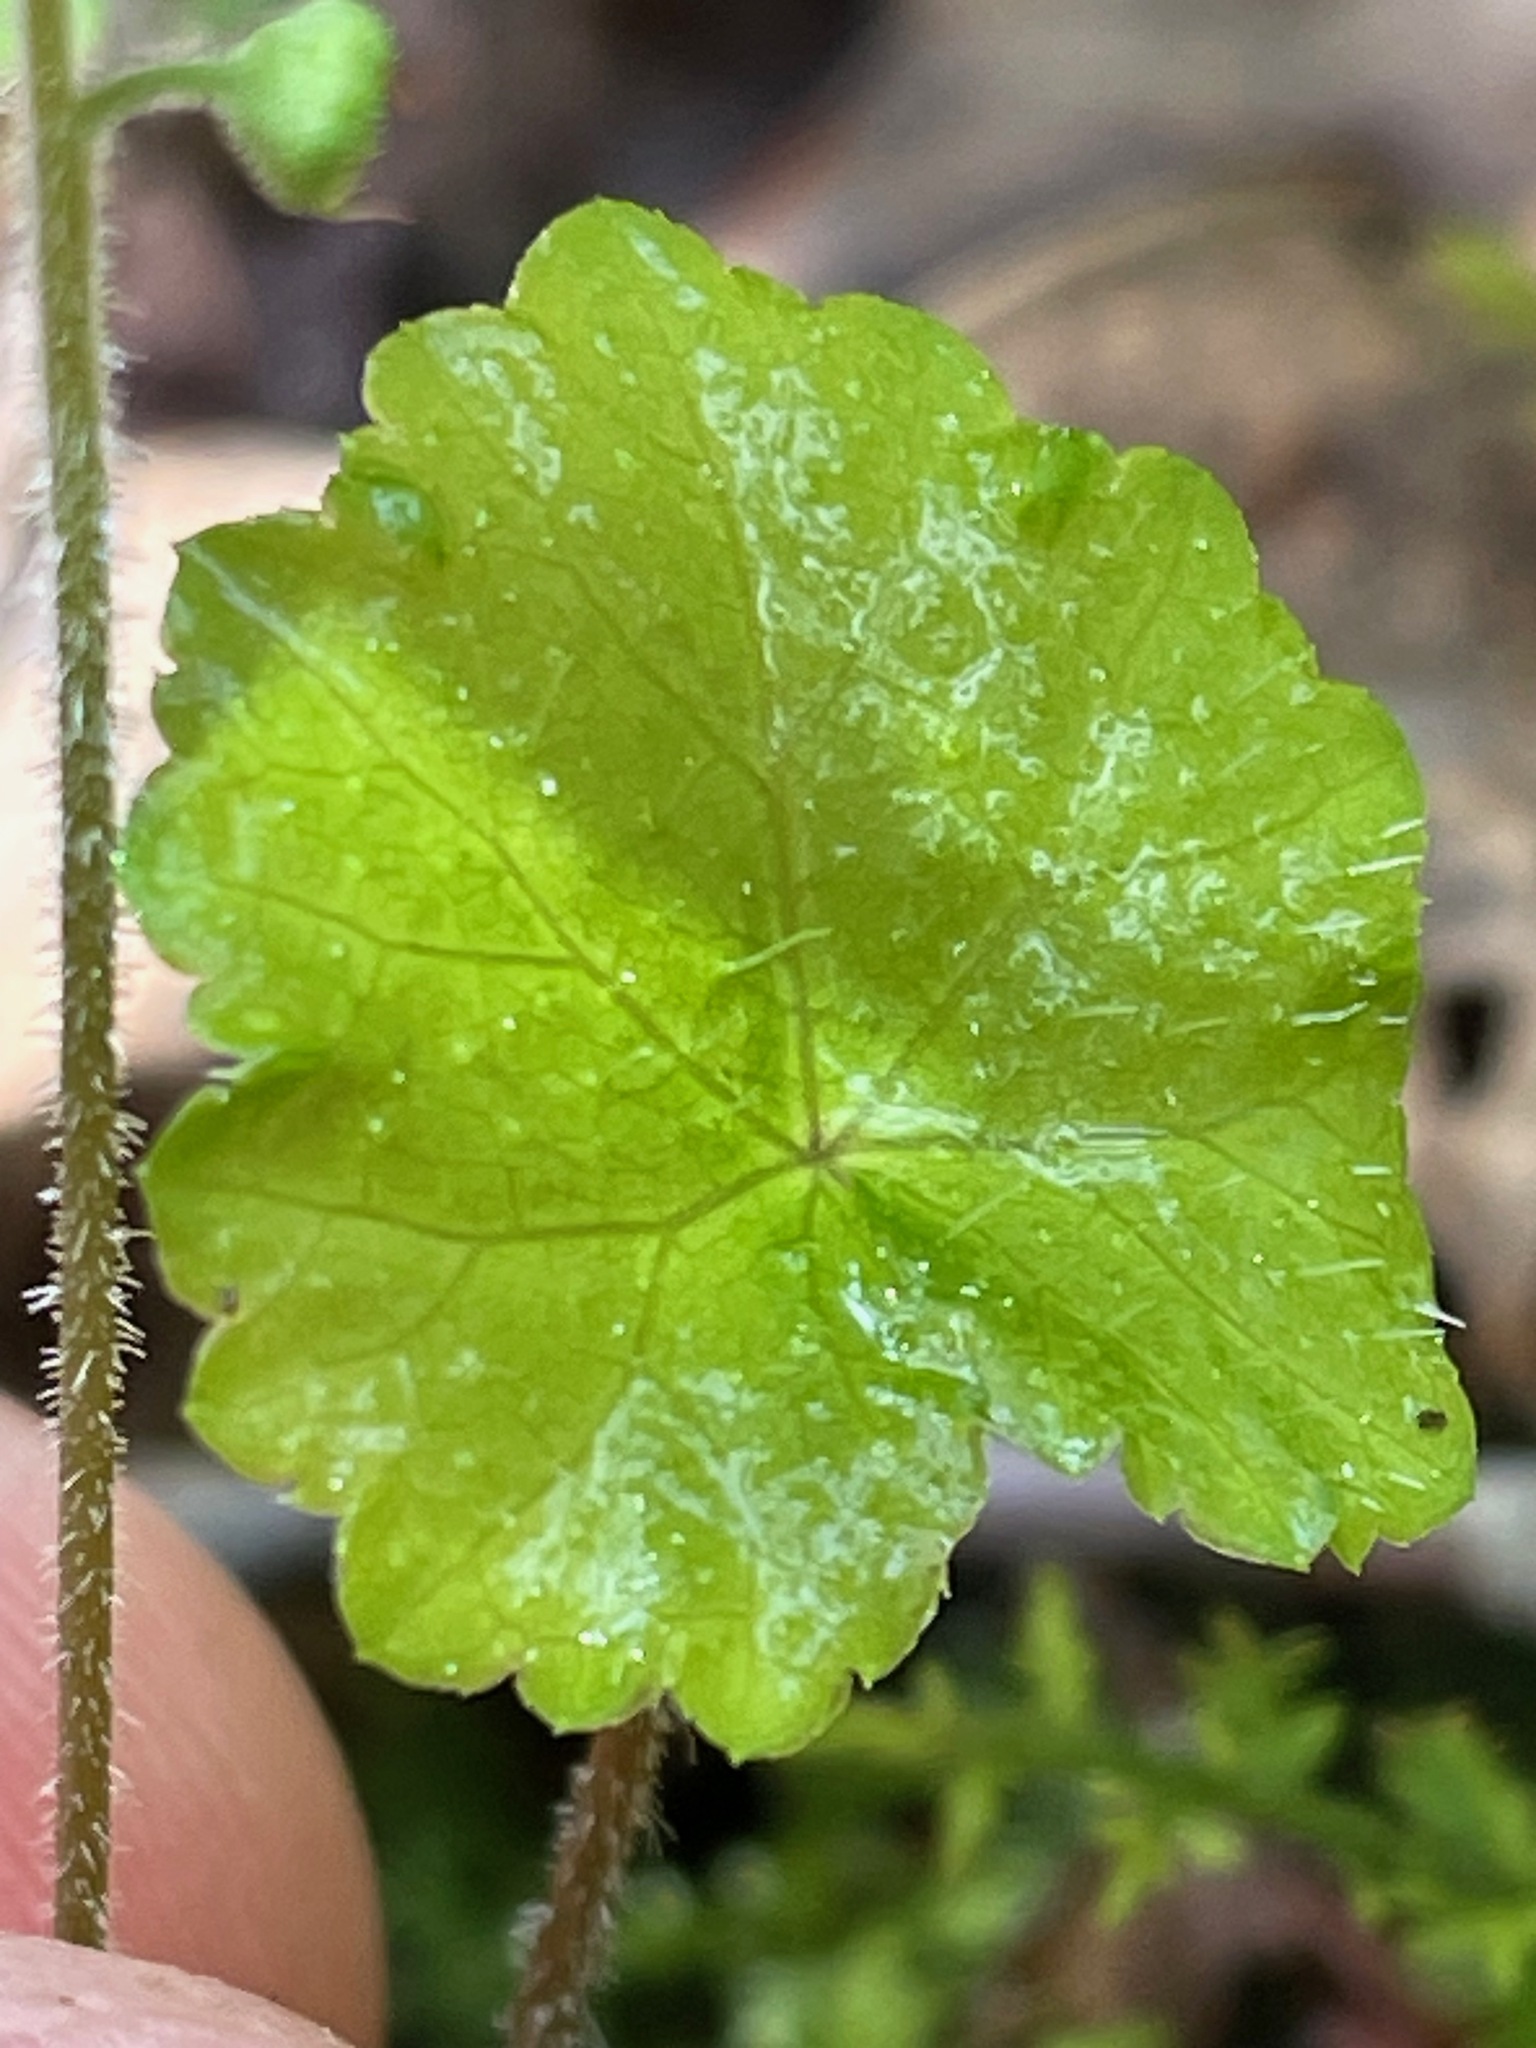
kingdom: Plantae
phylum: Tracheophyta
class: Magnoliopsida
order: Saxifragales
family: Saxifragaceae
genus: Mitella
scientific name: Mitella nuda
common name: Bare-stemmed bishop's-cap
